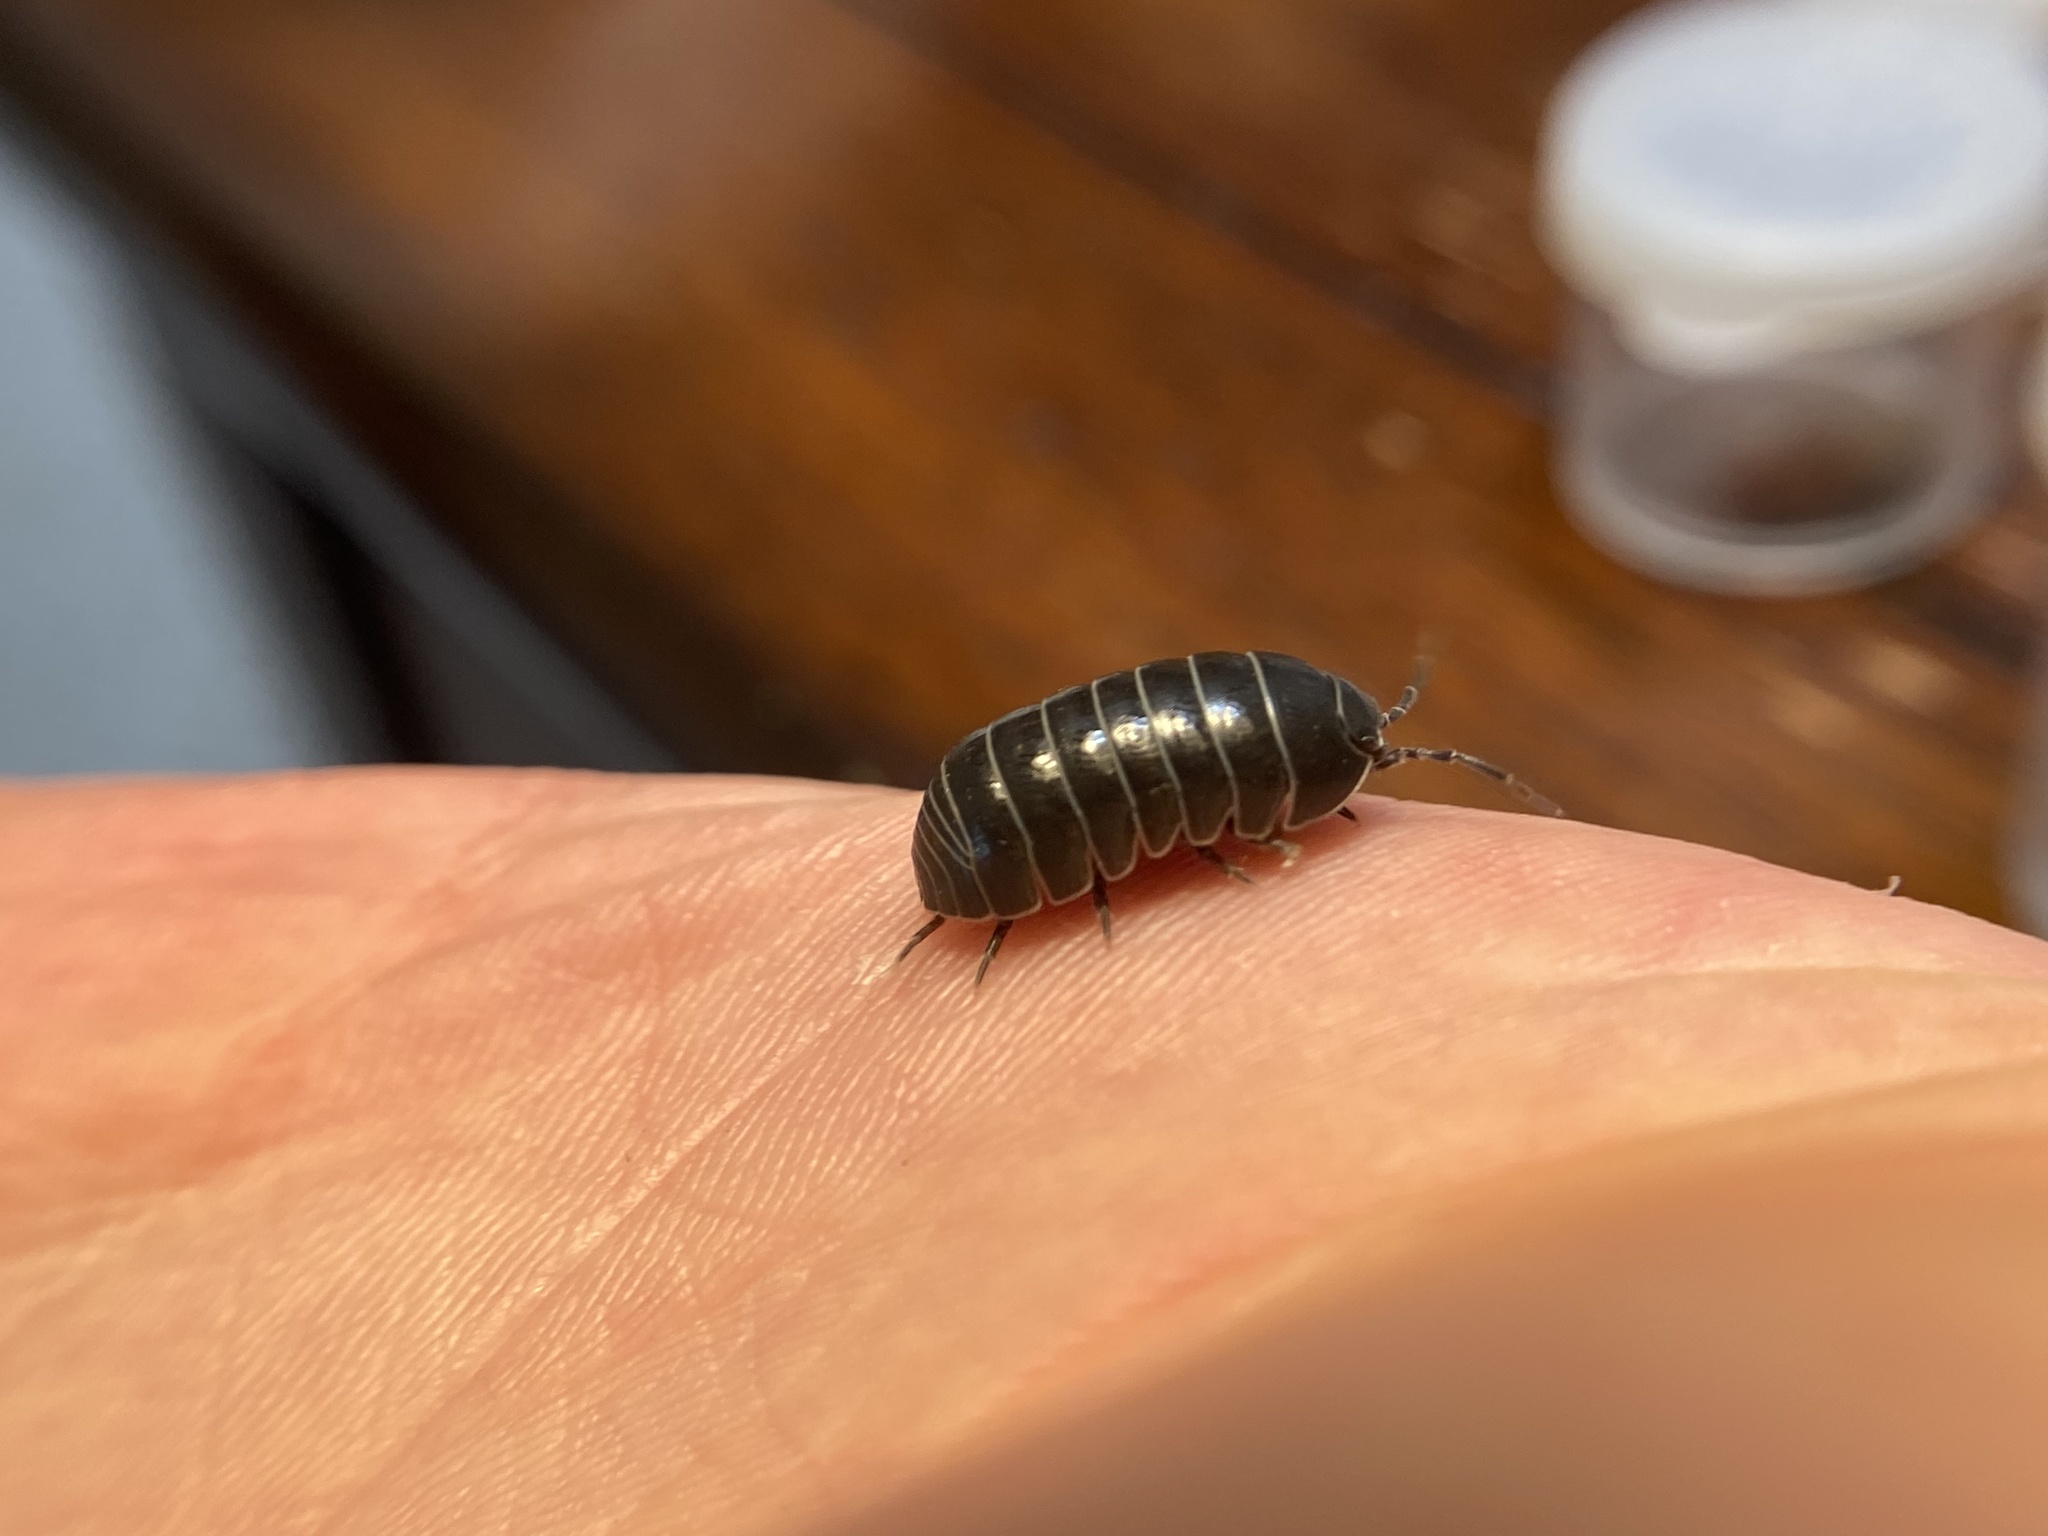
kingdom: Animalia
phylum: Arthropoda
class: Malacostraca
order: Isopoda
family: Armadillidiidae
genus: Armadillidium
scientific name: Armadillidium vulgare
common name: Common pill woodlouse
